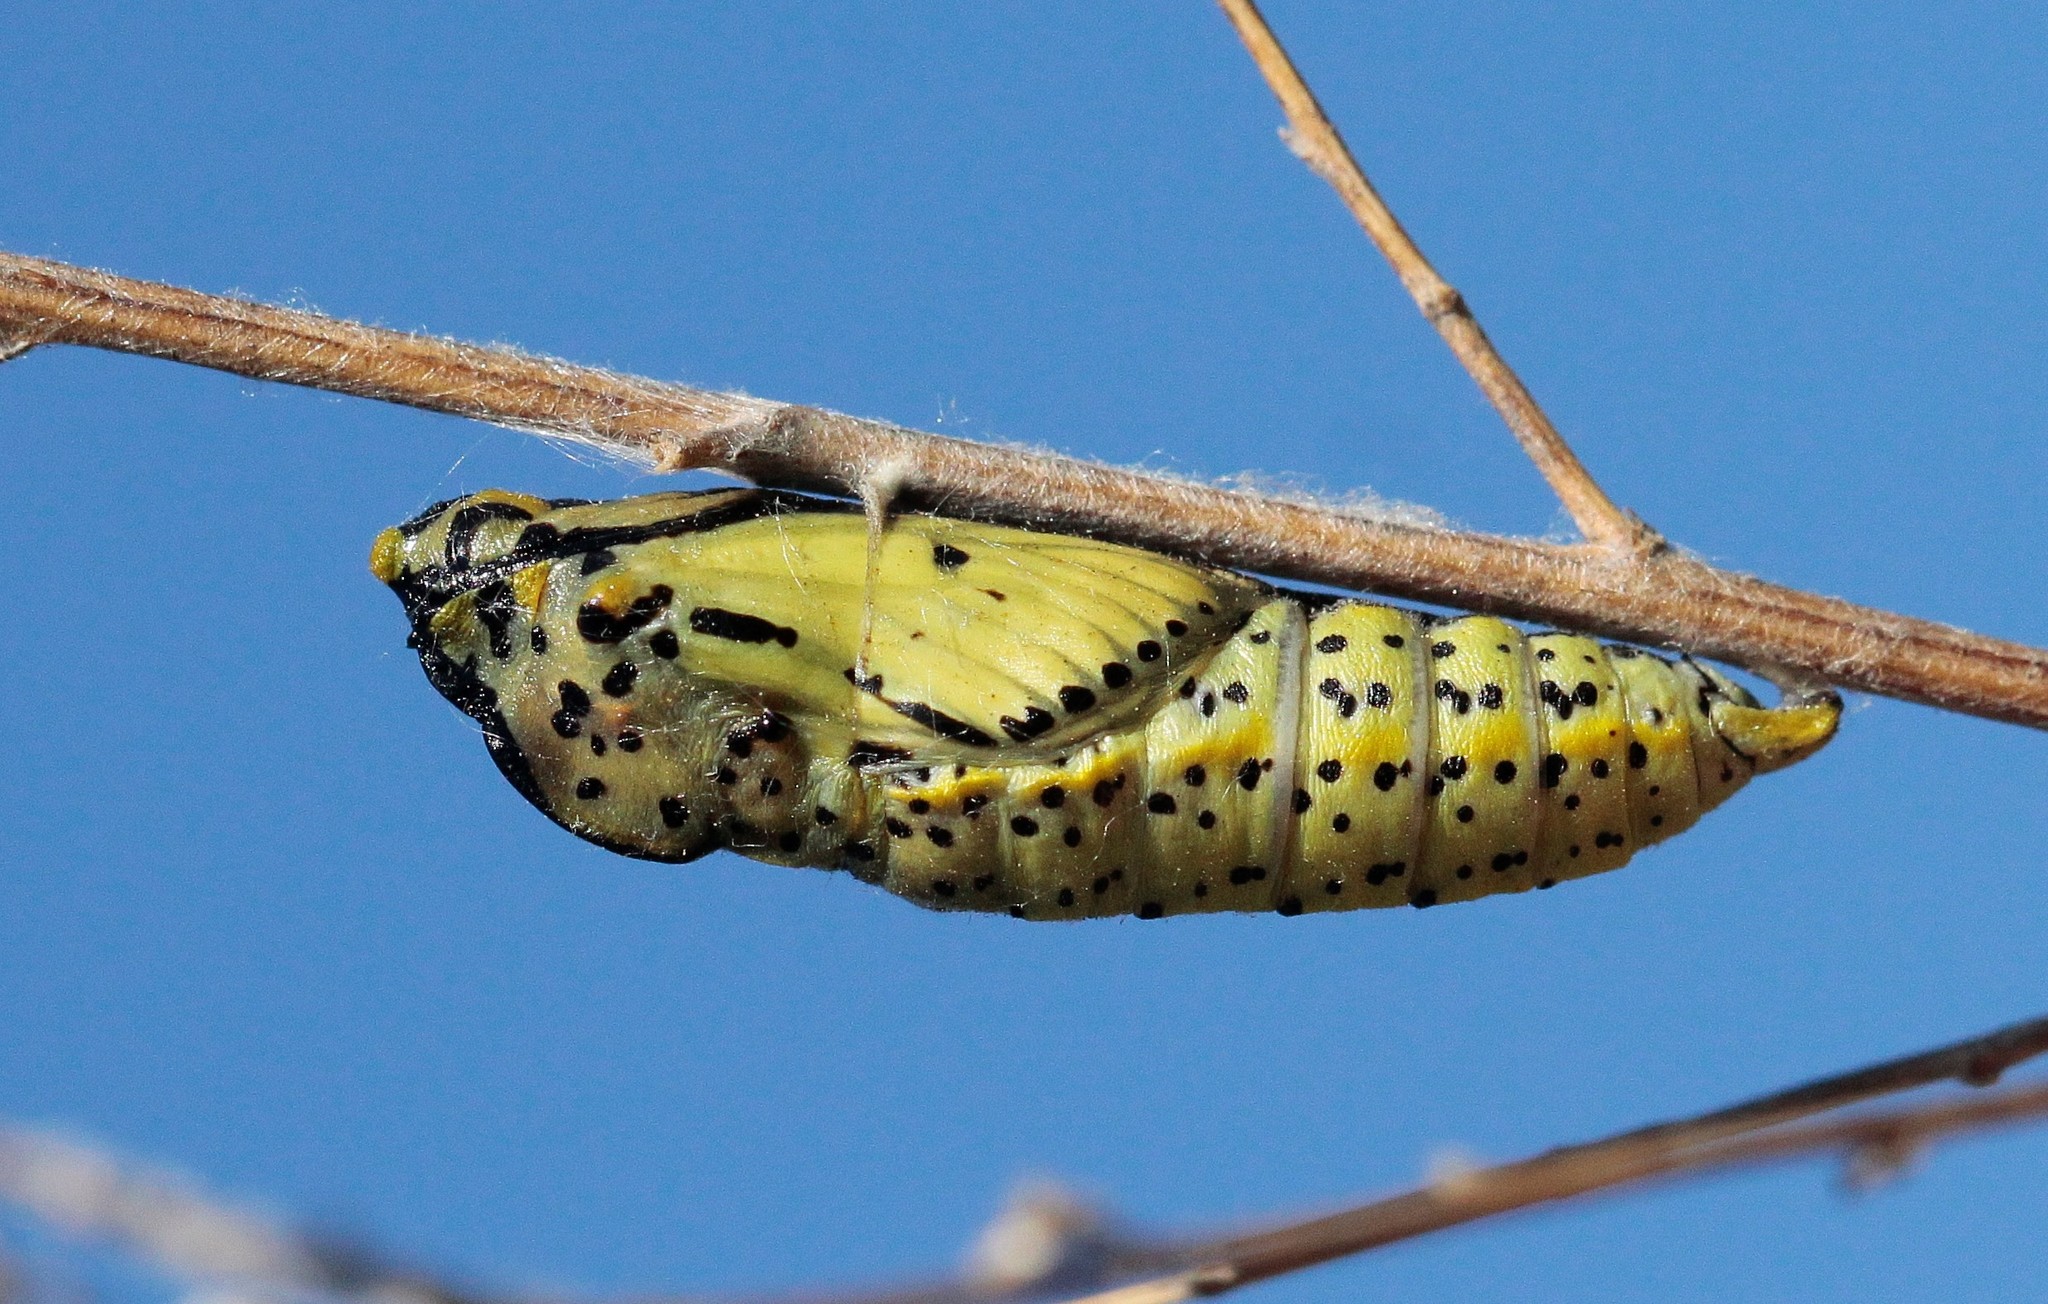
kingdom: Animalia
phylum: Arthropoda
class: Insecta
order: Lepidoptera
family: Pieridae
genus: Aporia
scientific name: Aporia crataegi
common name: Black-veined white
